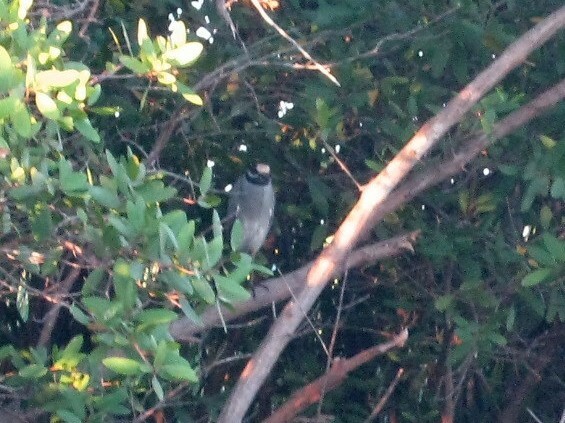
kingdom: Animalia
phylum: Chordata
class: Aves
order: Pelecaniformes
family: Ardeidae
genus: Nyctanassa
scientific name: Nyctanassa violacea
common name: Yellow-crowned night heron
